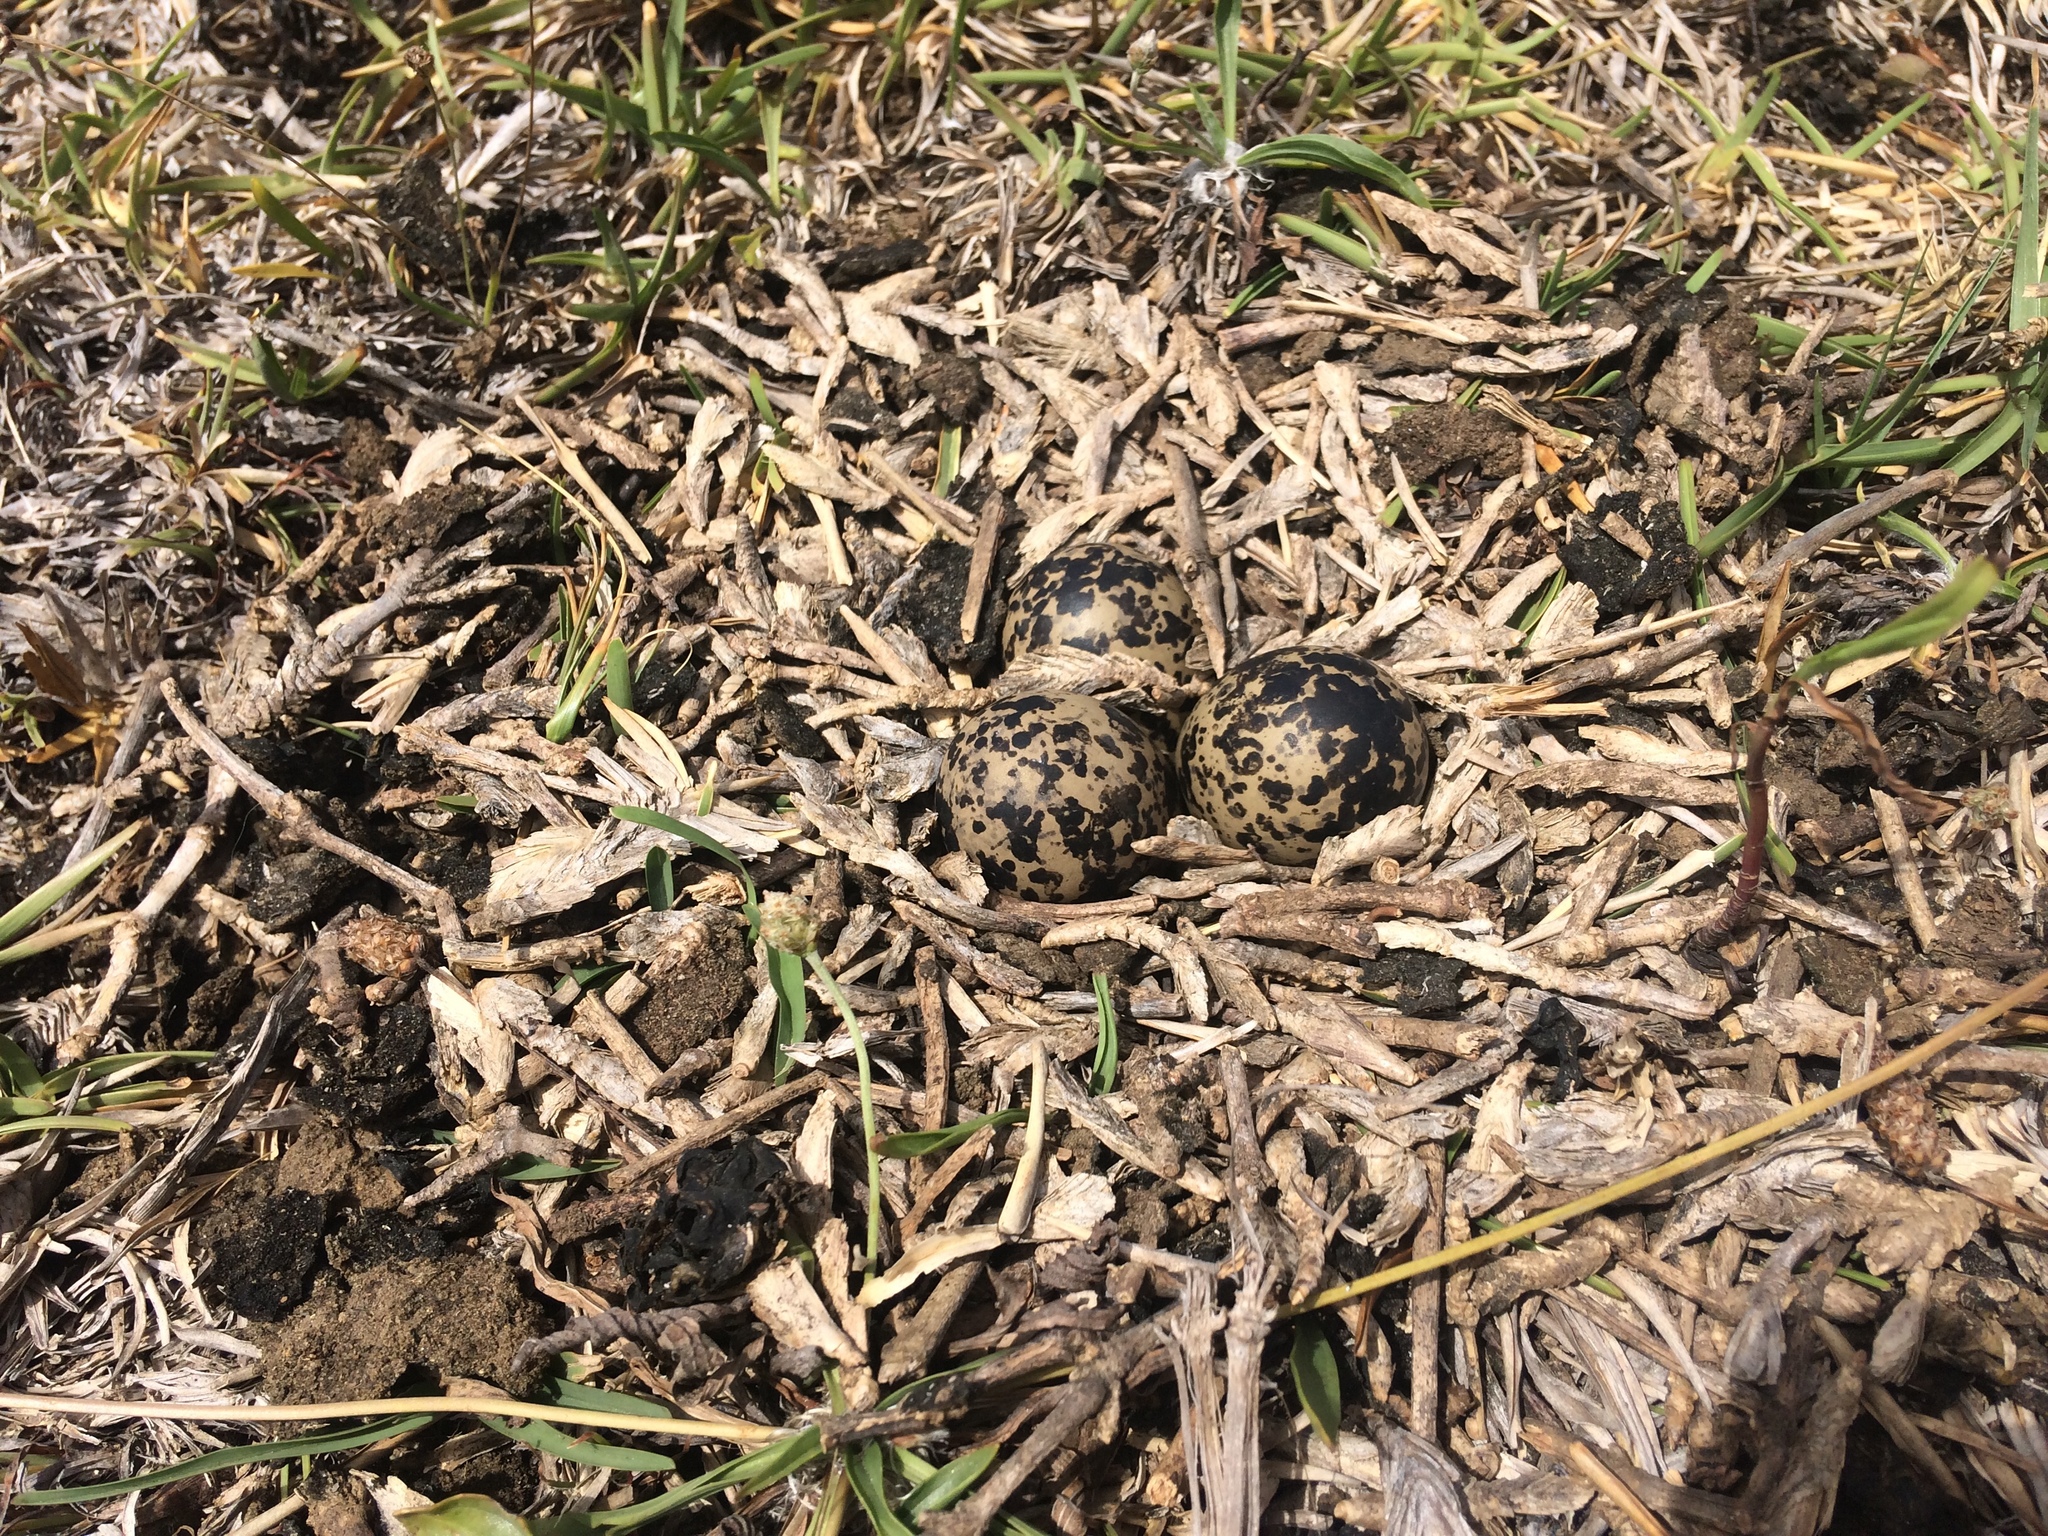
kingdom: Animalia
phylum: Chordata
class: Aves
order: Charadriiformes
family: Charadriidae
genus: Vanellus
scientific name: Vanellus armatus
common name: Blacksmith lapwing
